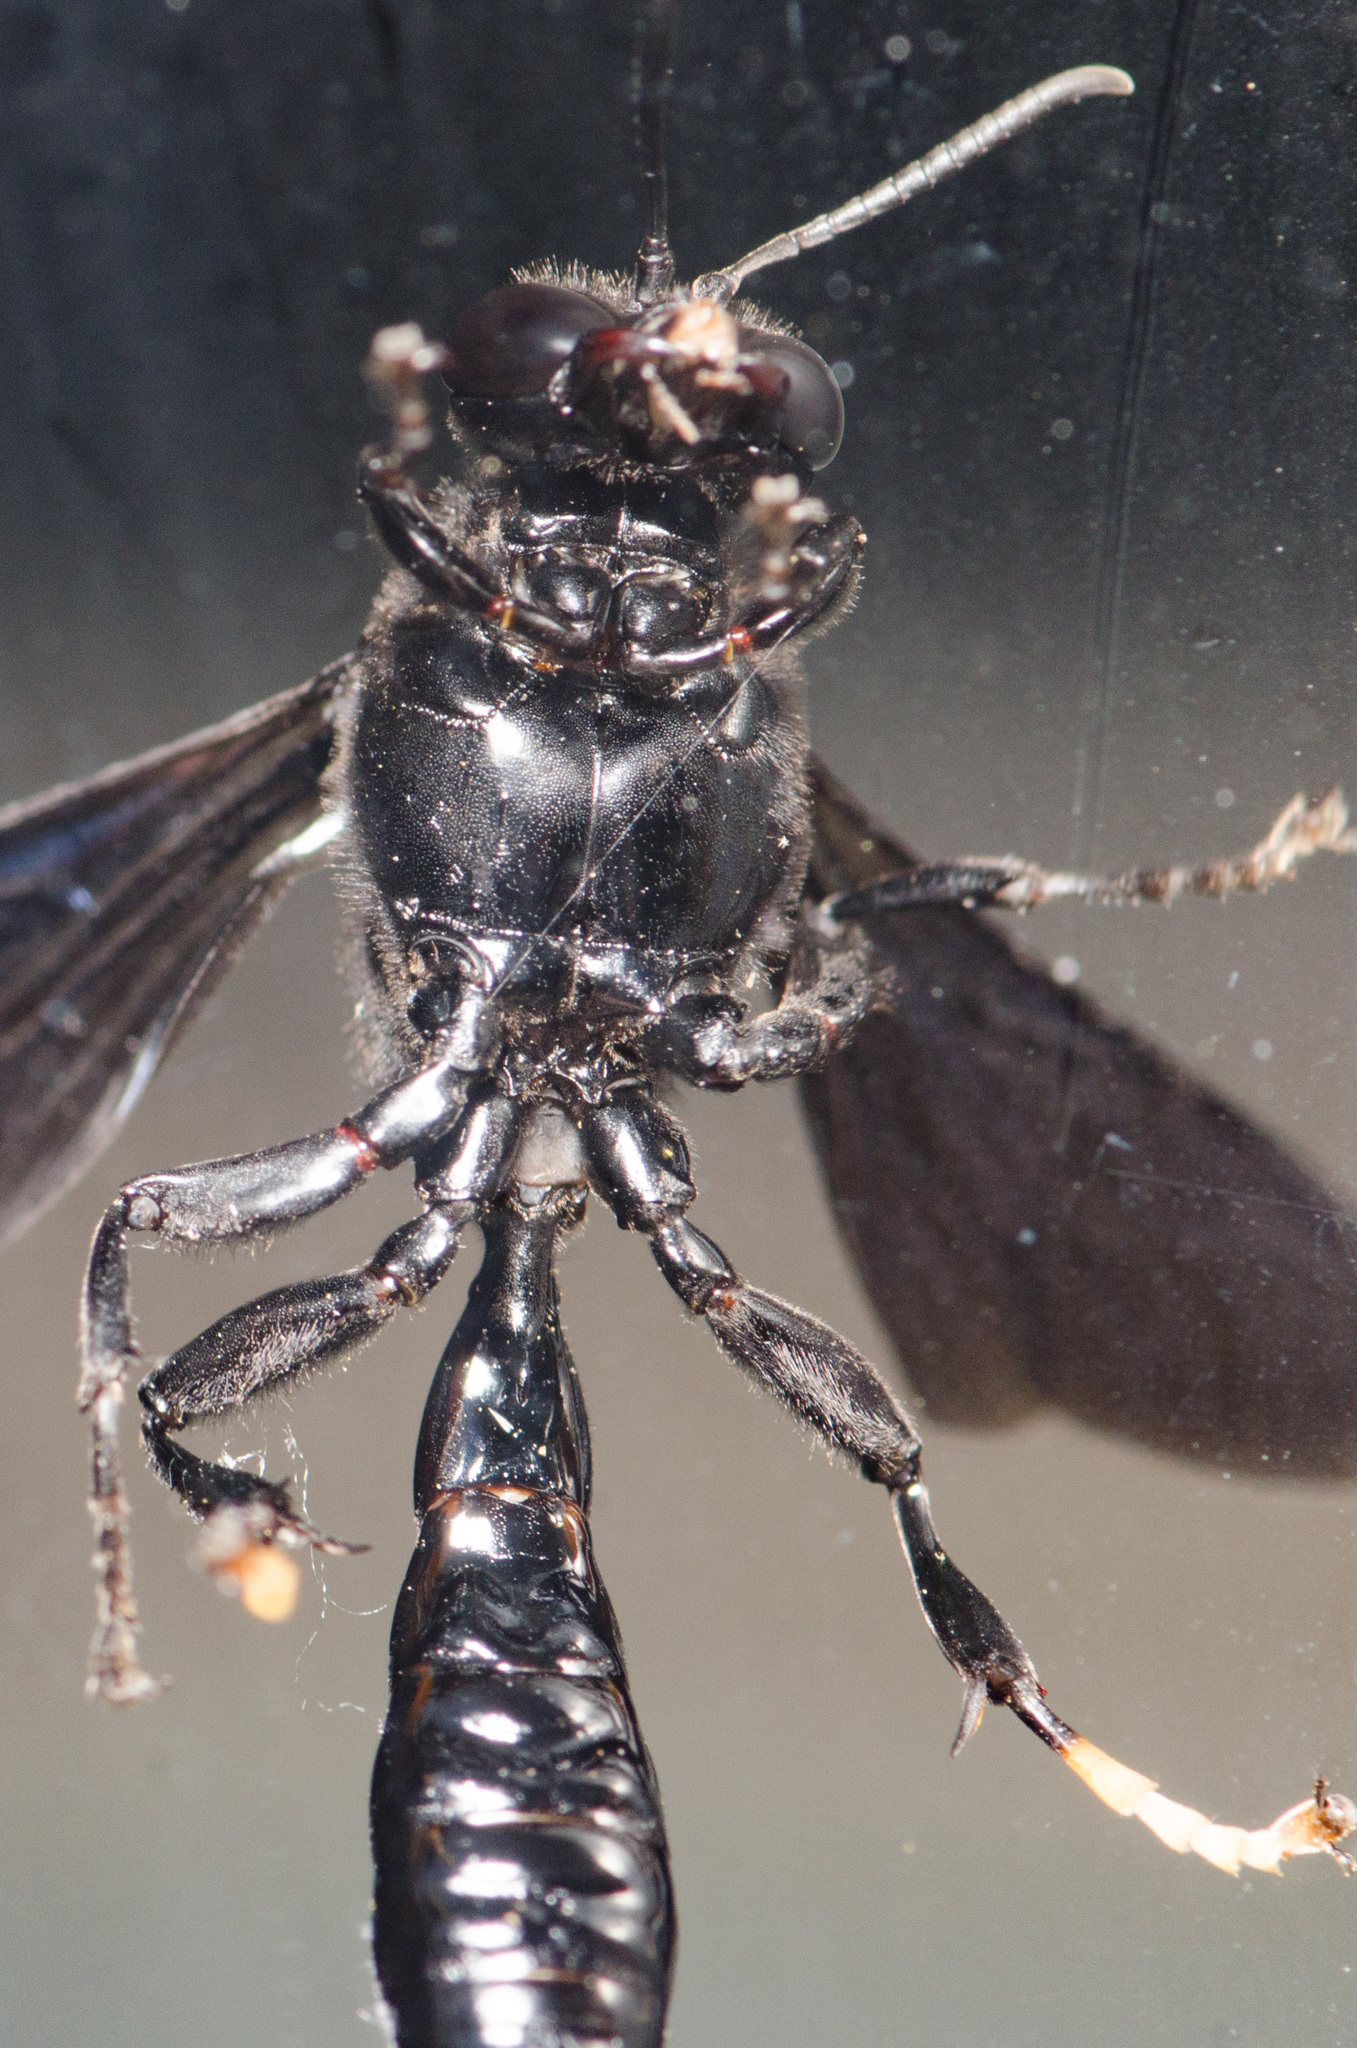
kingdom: Animalia
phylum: Arthropoda
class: Insecta
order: Hymenoptera
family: Crabronidae
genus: Trypoxylon
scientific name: Trypoxylon politum
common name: Organ-pipe mud-dauber wasp
